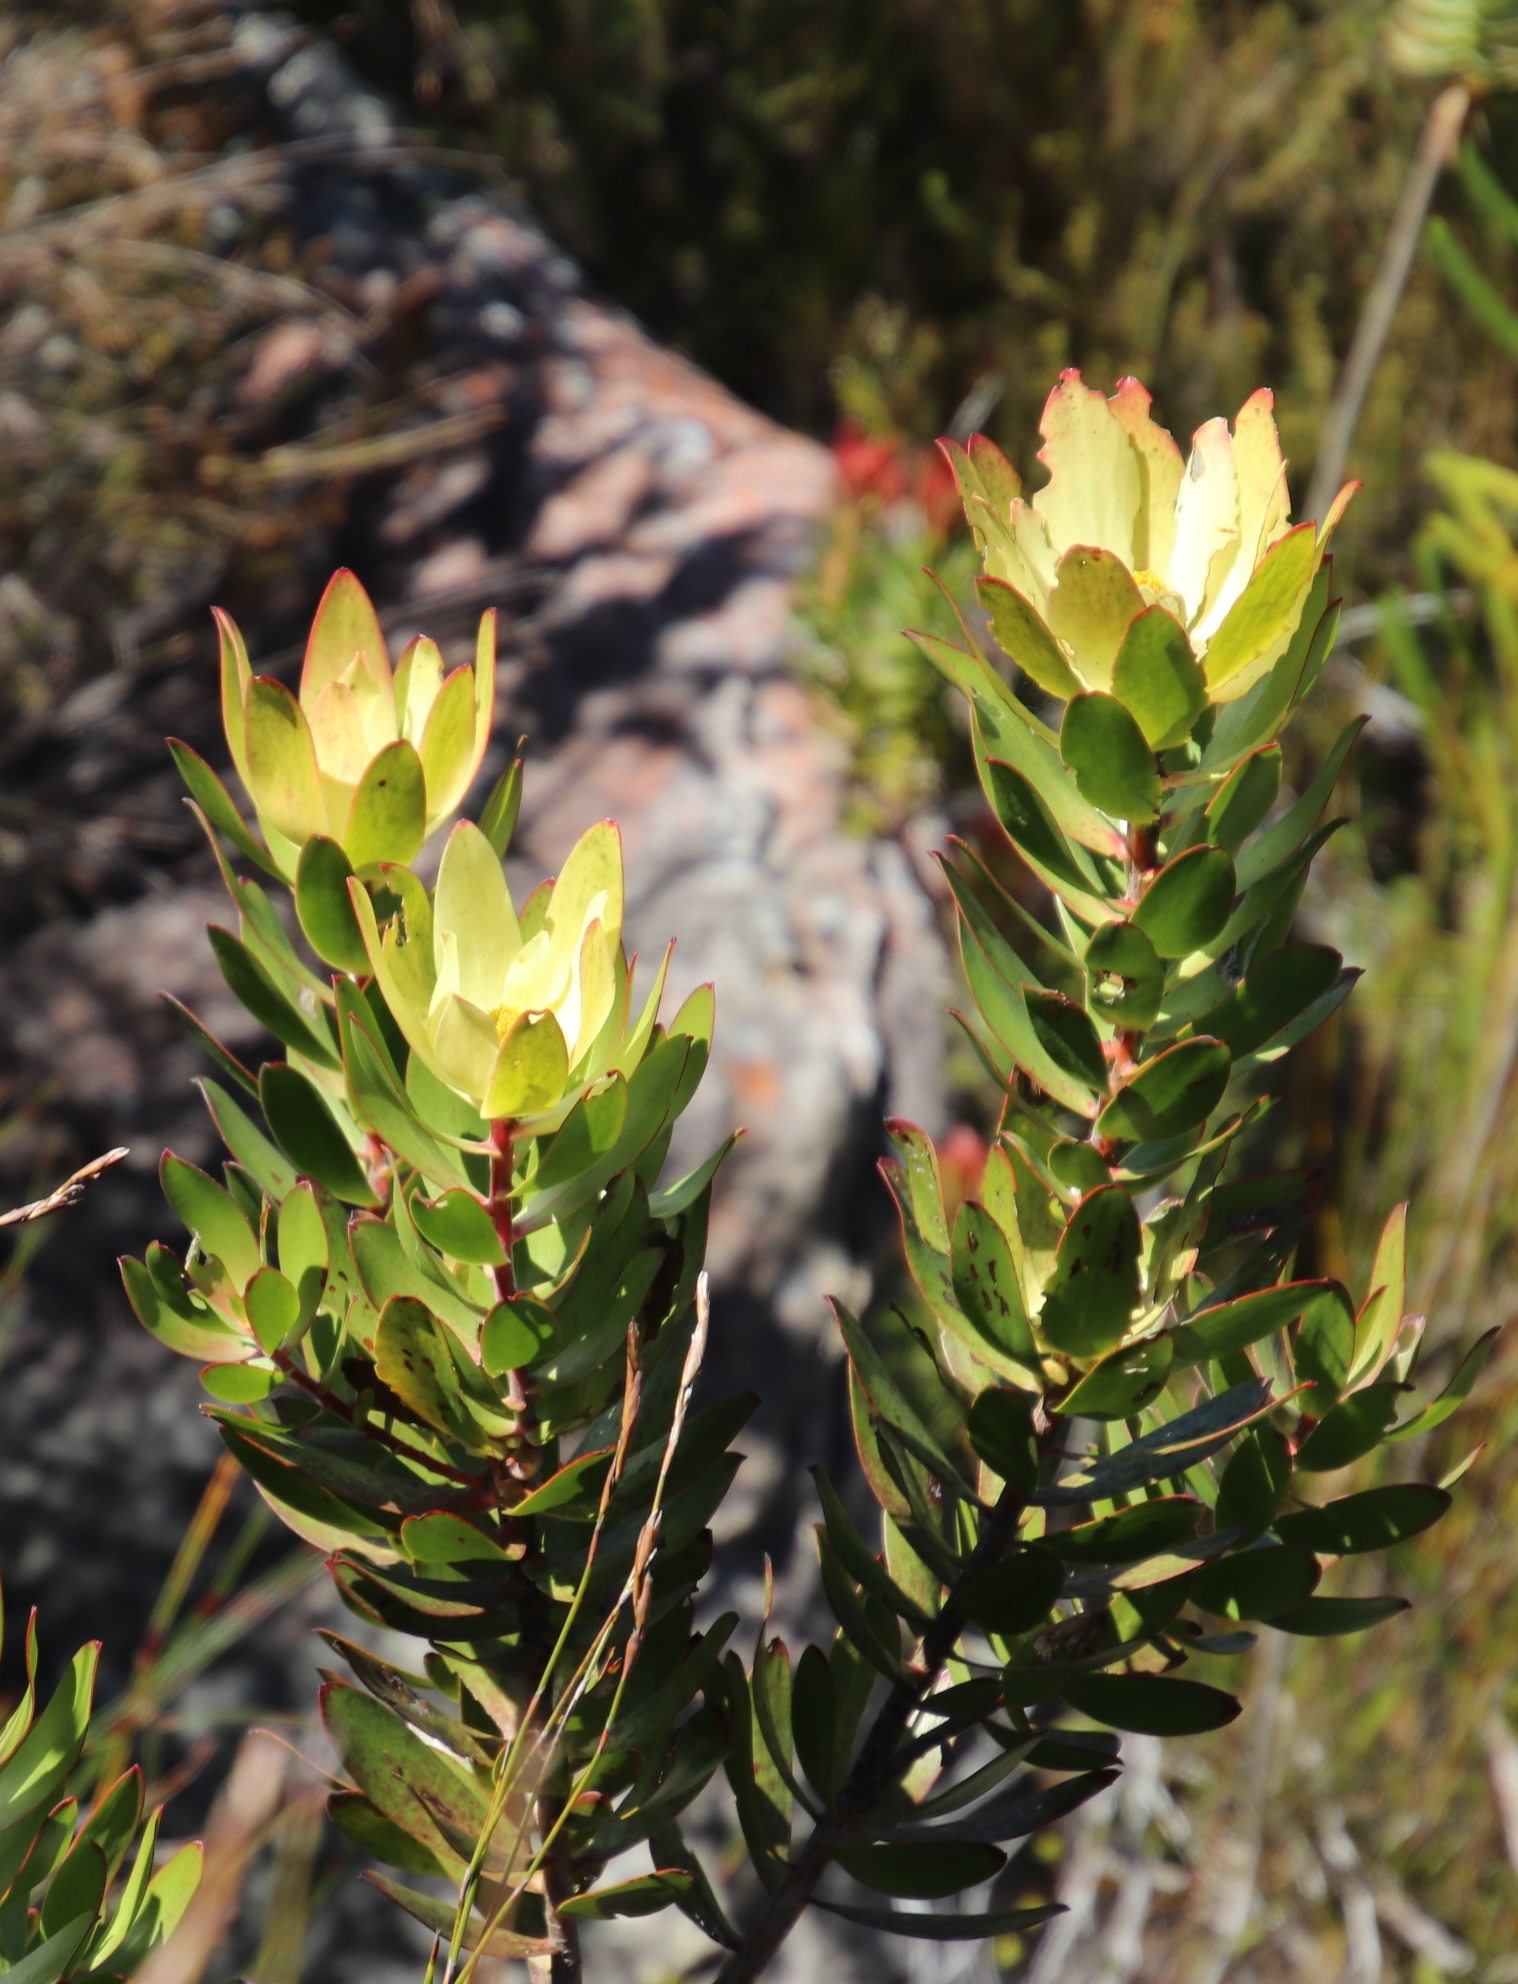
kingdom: Plantae
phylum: Tracheophyta
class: Magnoliopsida
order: Proteales
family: Proteaceae
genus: Leucadendron
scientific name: Leucadendron gandogeri
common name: Broad-leaf conebush
